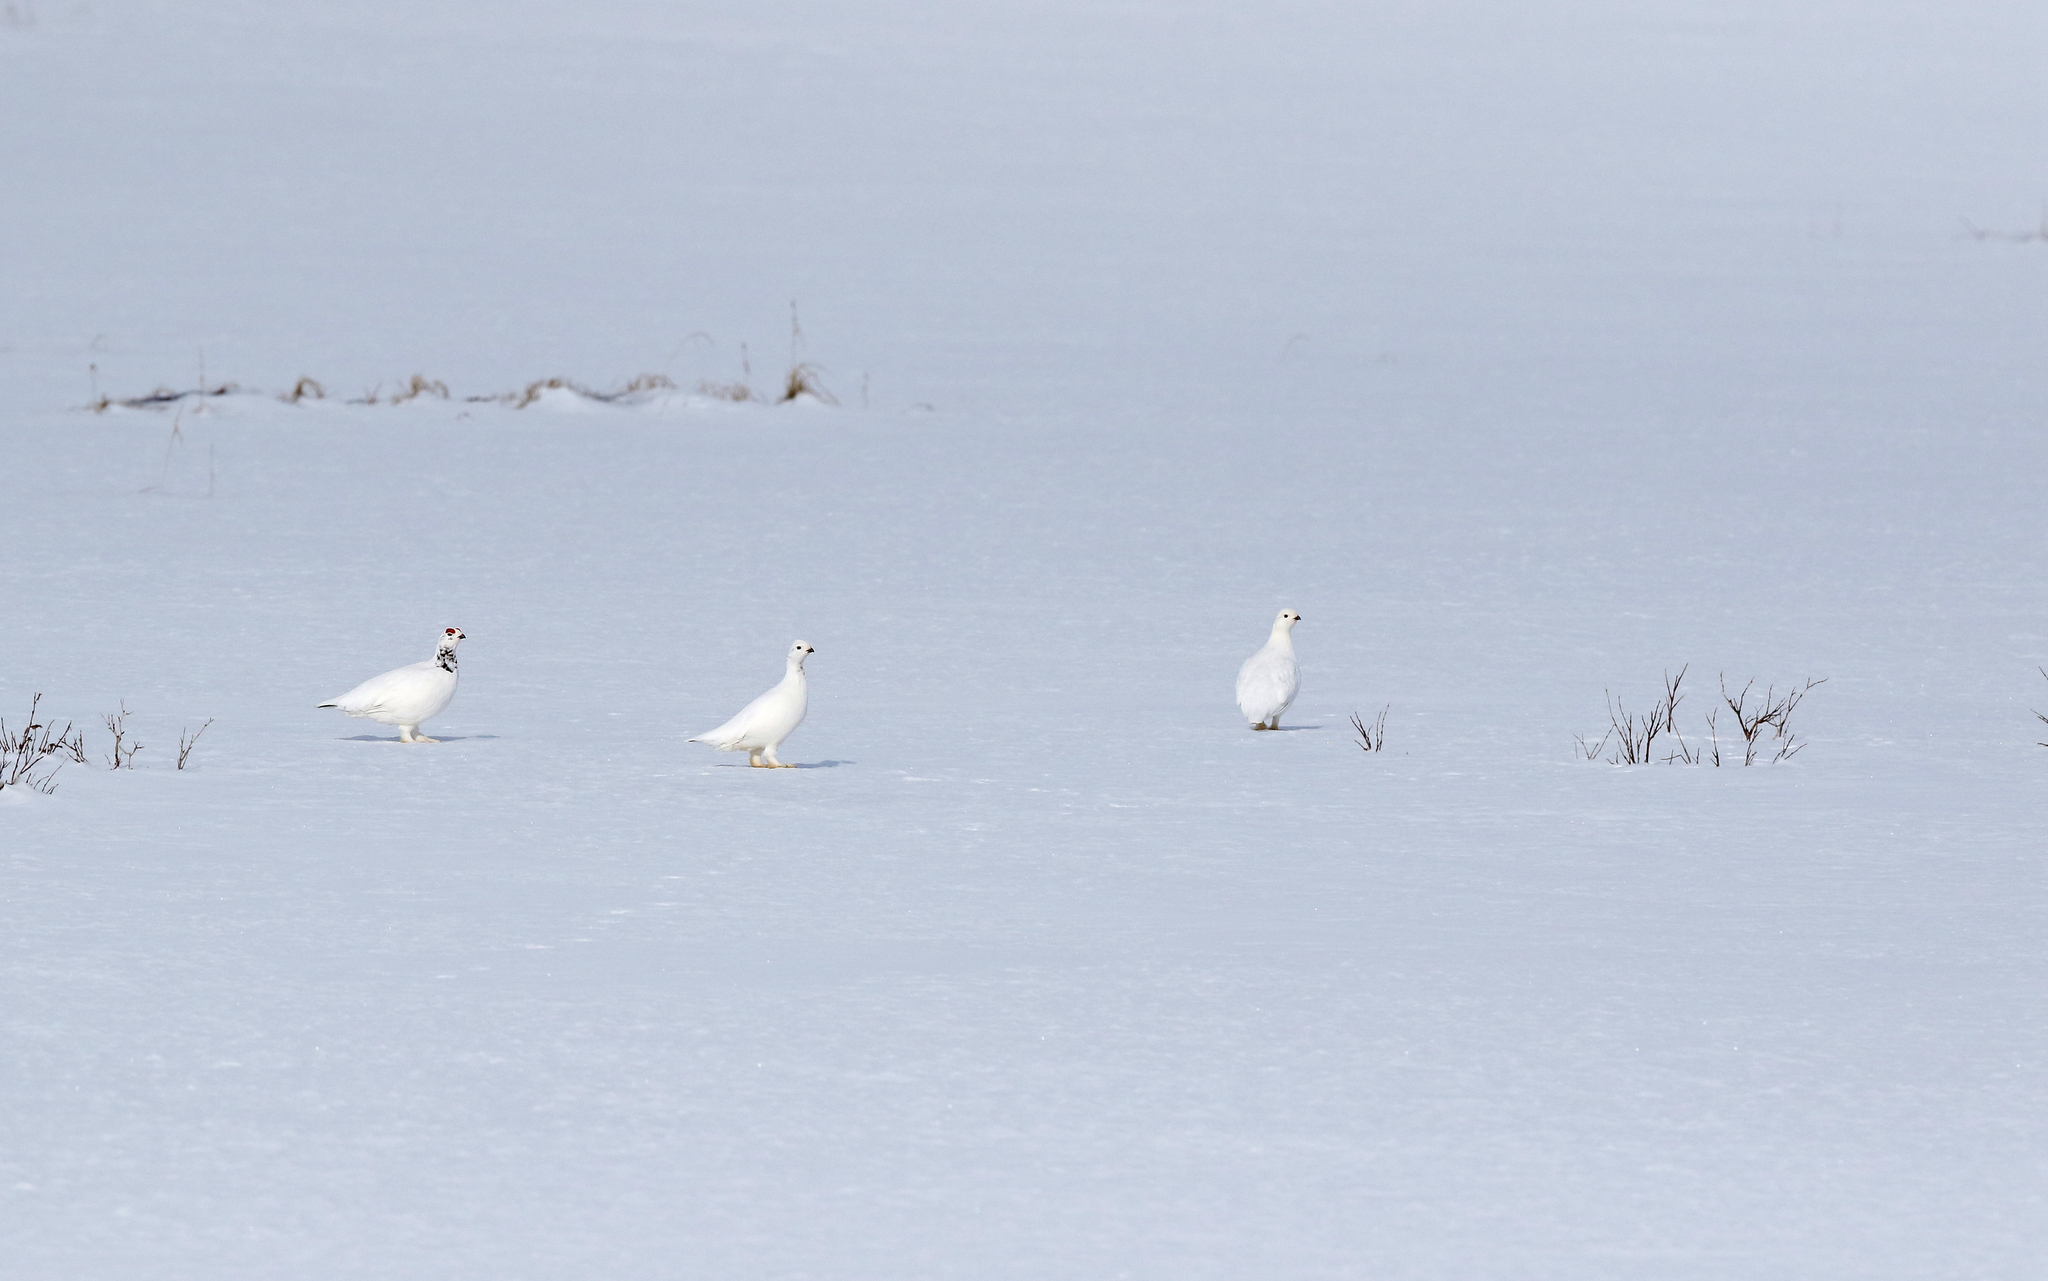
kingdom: Animalia
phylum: Chordata
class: Aves
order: Galliformes
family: Phasianidae
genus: Lagopus
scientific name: Lagopus lagopus
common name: Willow ptarmigan
